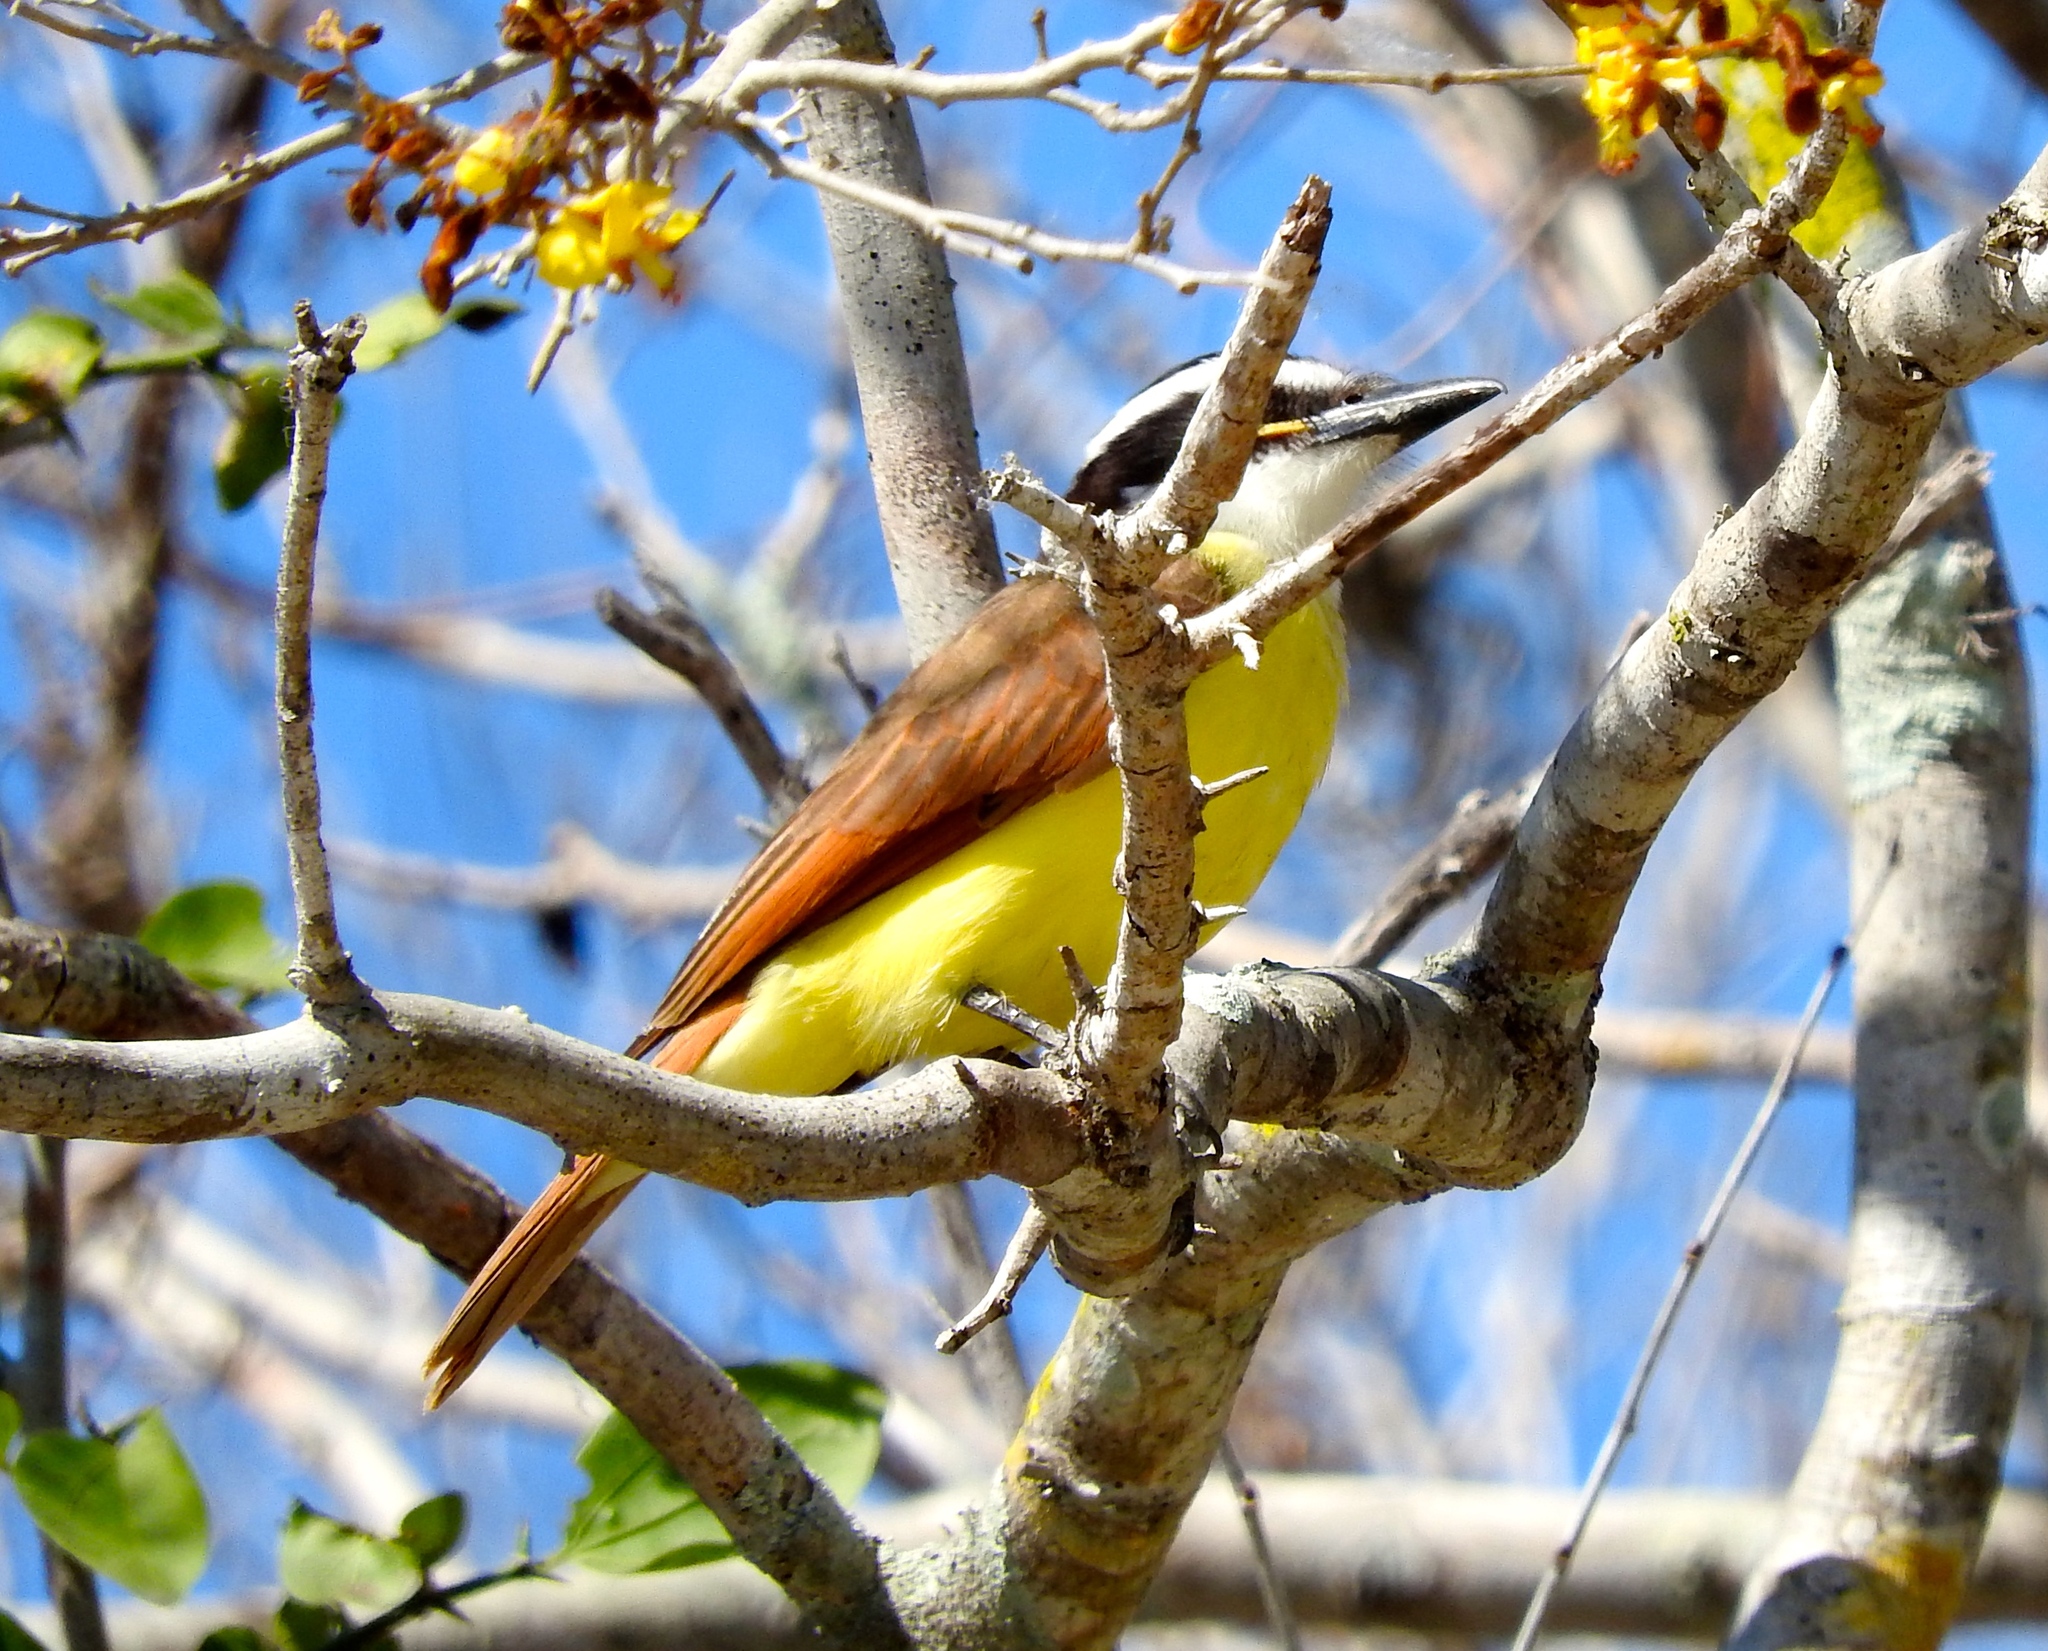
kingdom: Animalia
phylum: Chordata
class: Aves
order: Passeriformes
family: Tyrannidae
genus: Pitangus
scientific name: Pitangus sulphuratus
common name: Great kiskadee
